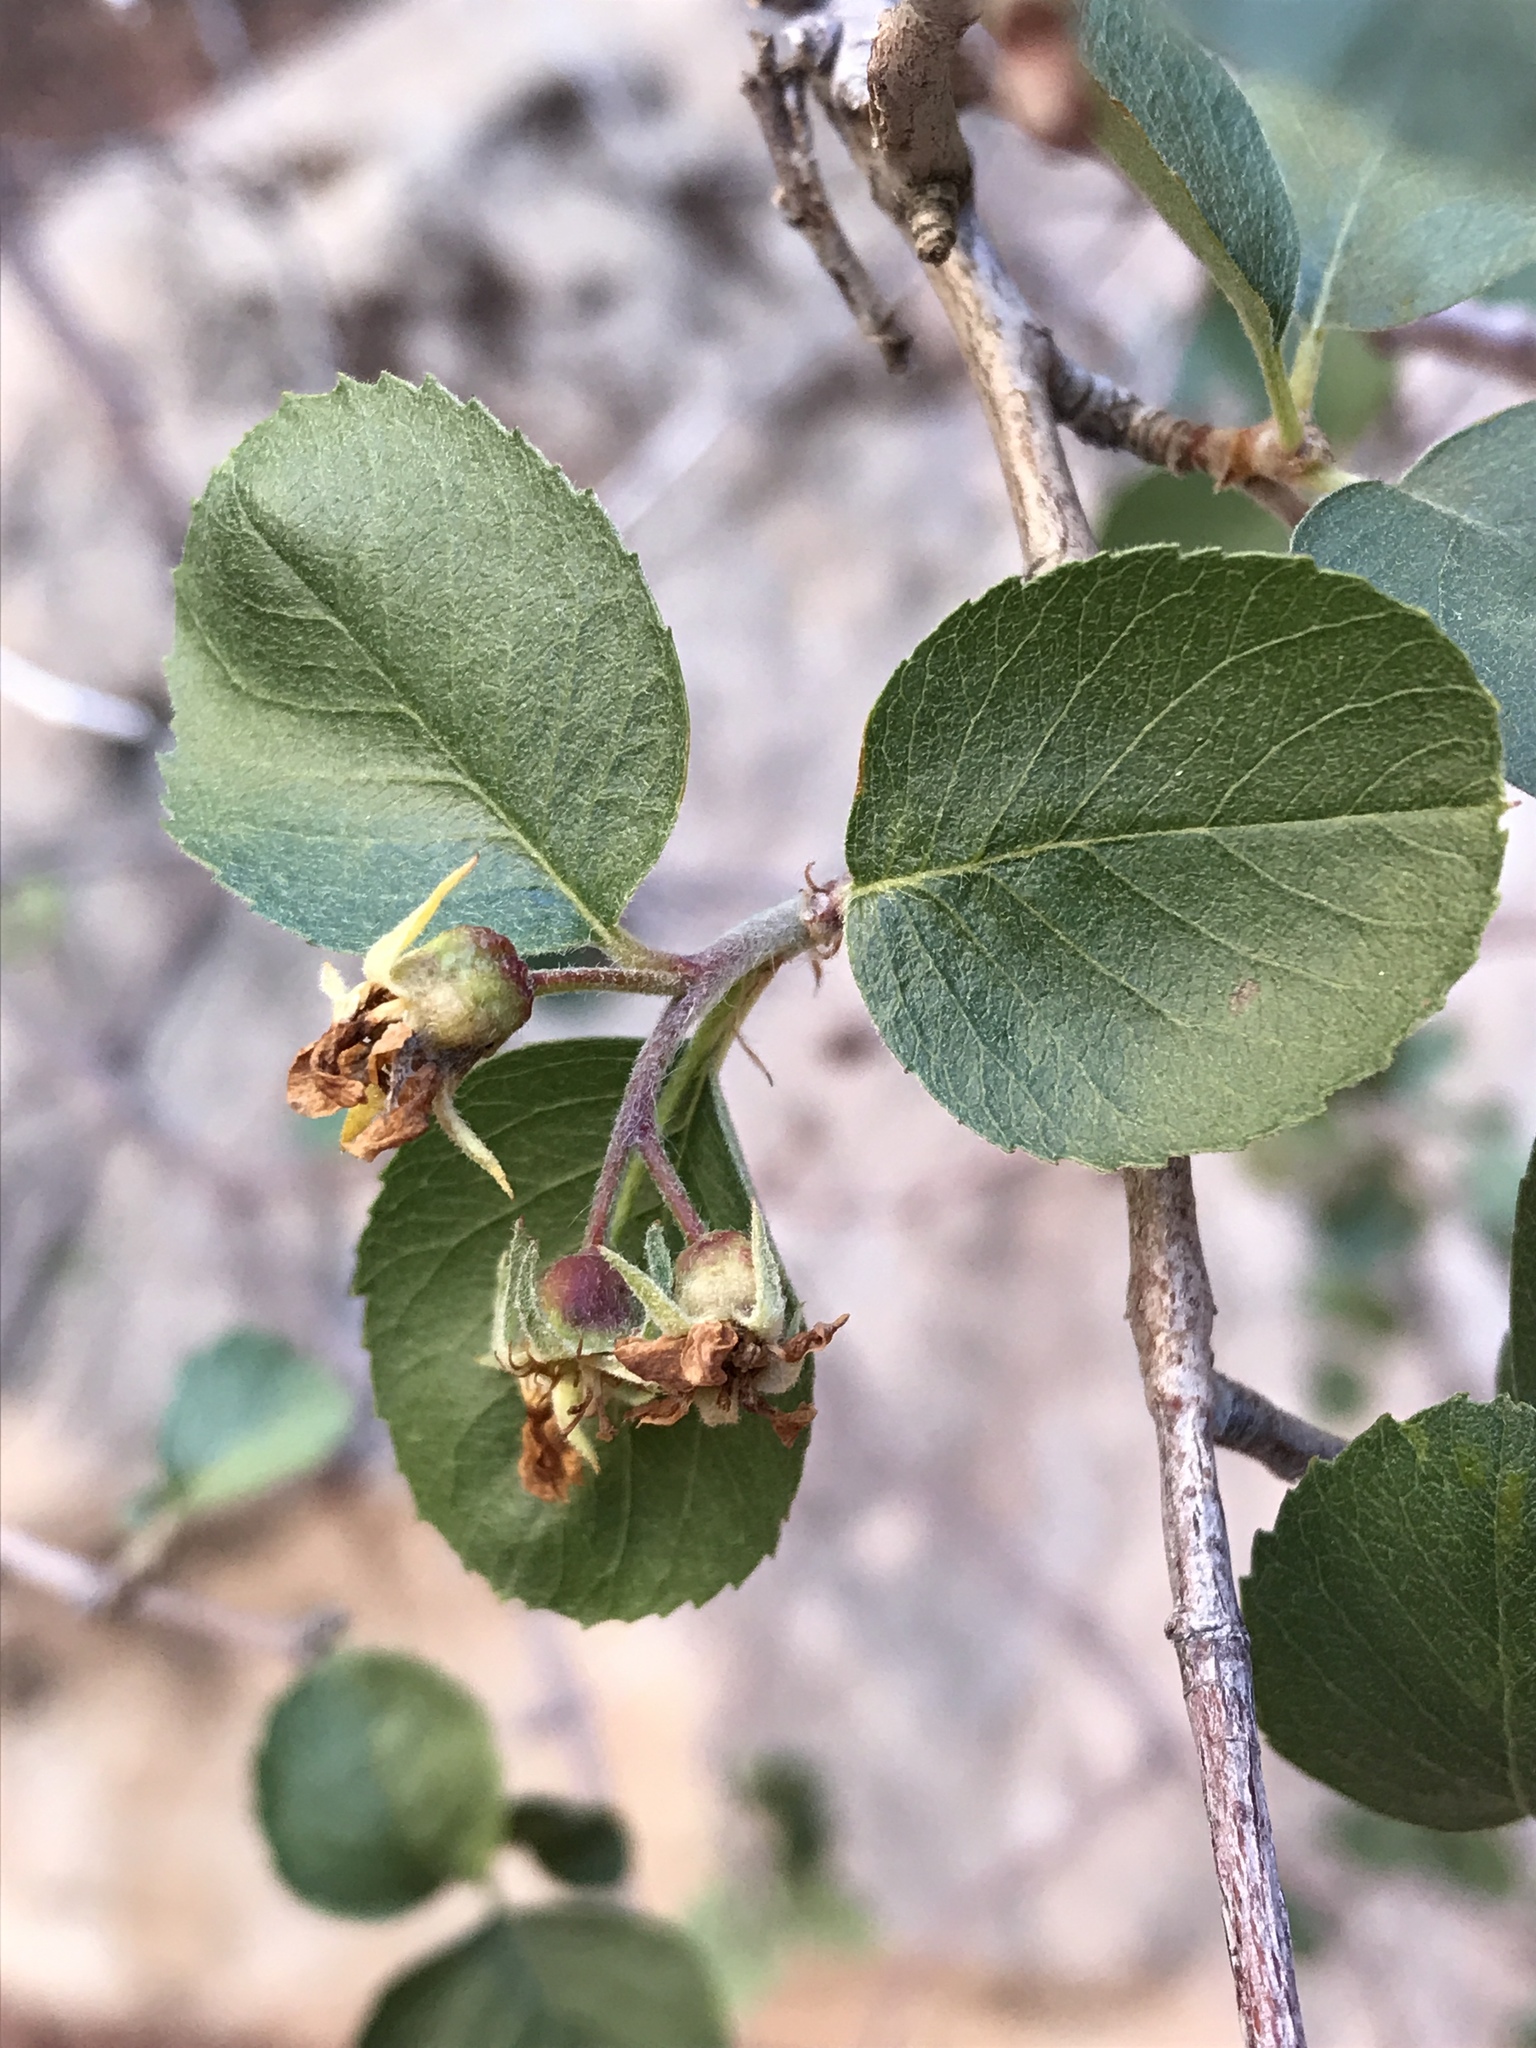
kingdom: Plantae
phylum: Tracheophyta
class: Magnoliopsida
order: Rosales
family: Rosaceae
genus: Amelanchier
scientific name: Amelanchier utahensis
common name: Utah serviceberry
